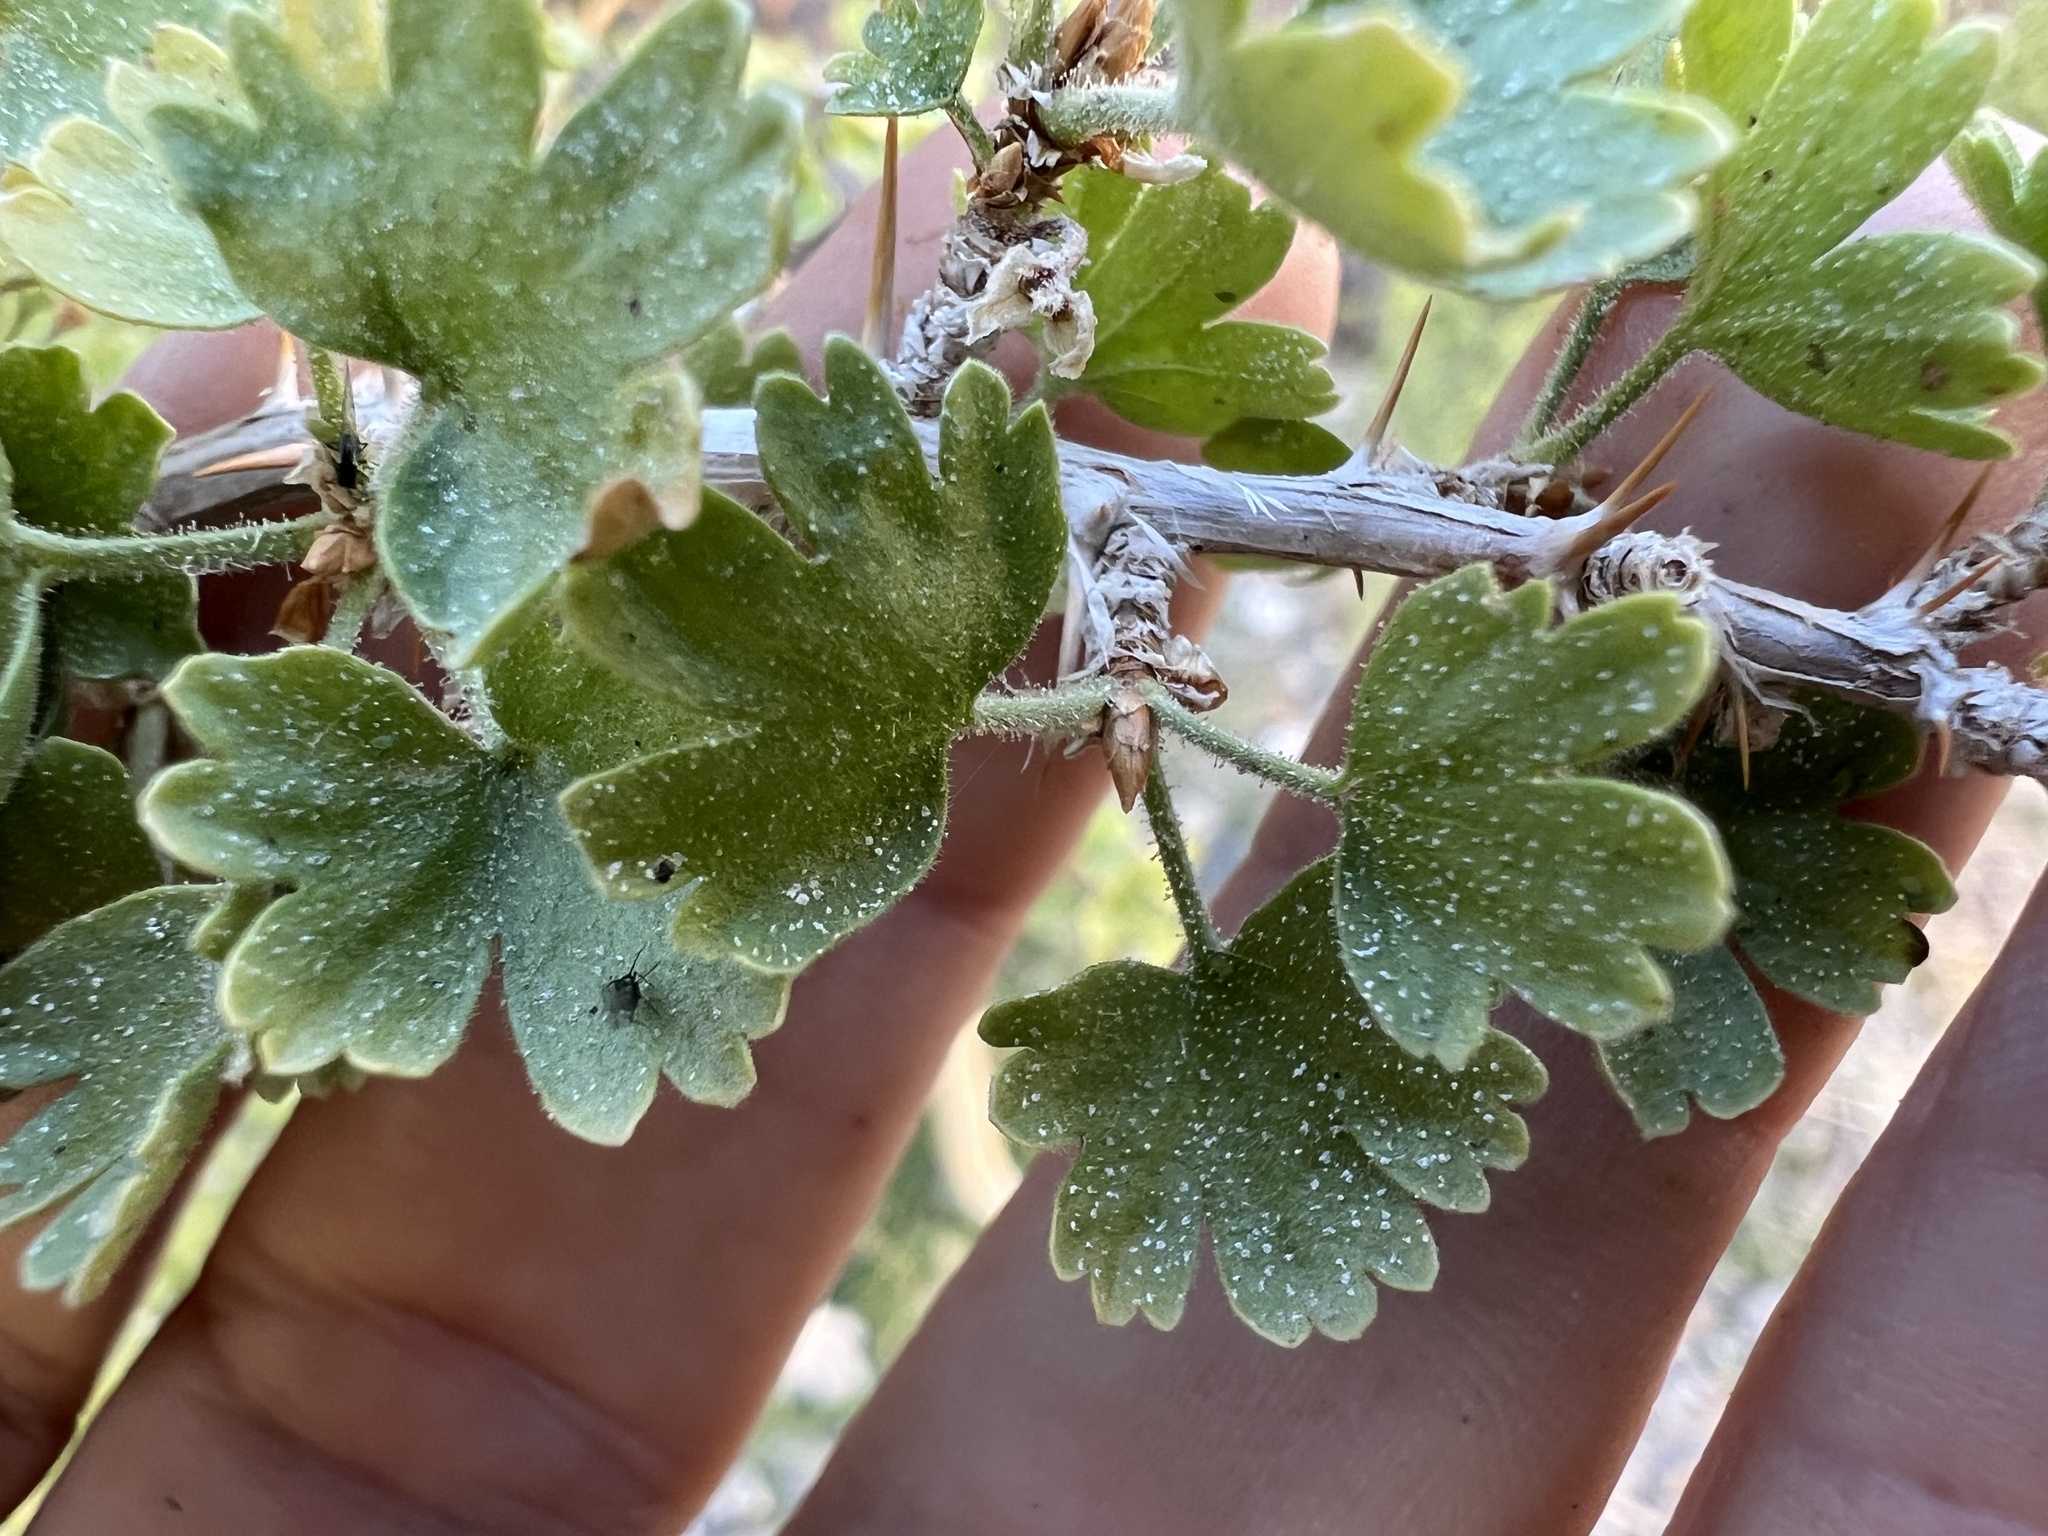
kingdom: Plantae
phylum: Tracheophyta
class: Magnoliopsida
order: Saxifragales
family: Grossulariaceae
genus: Ribes
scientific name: Ribes velutinum
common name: Desert gooseberry
